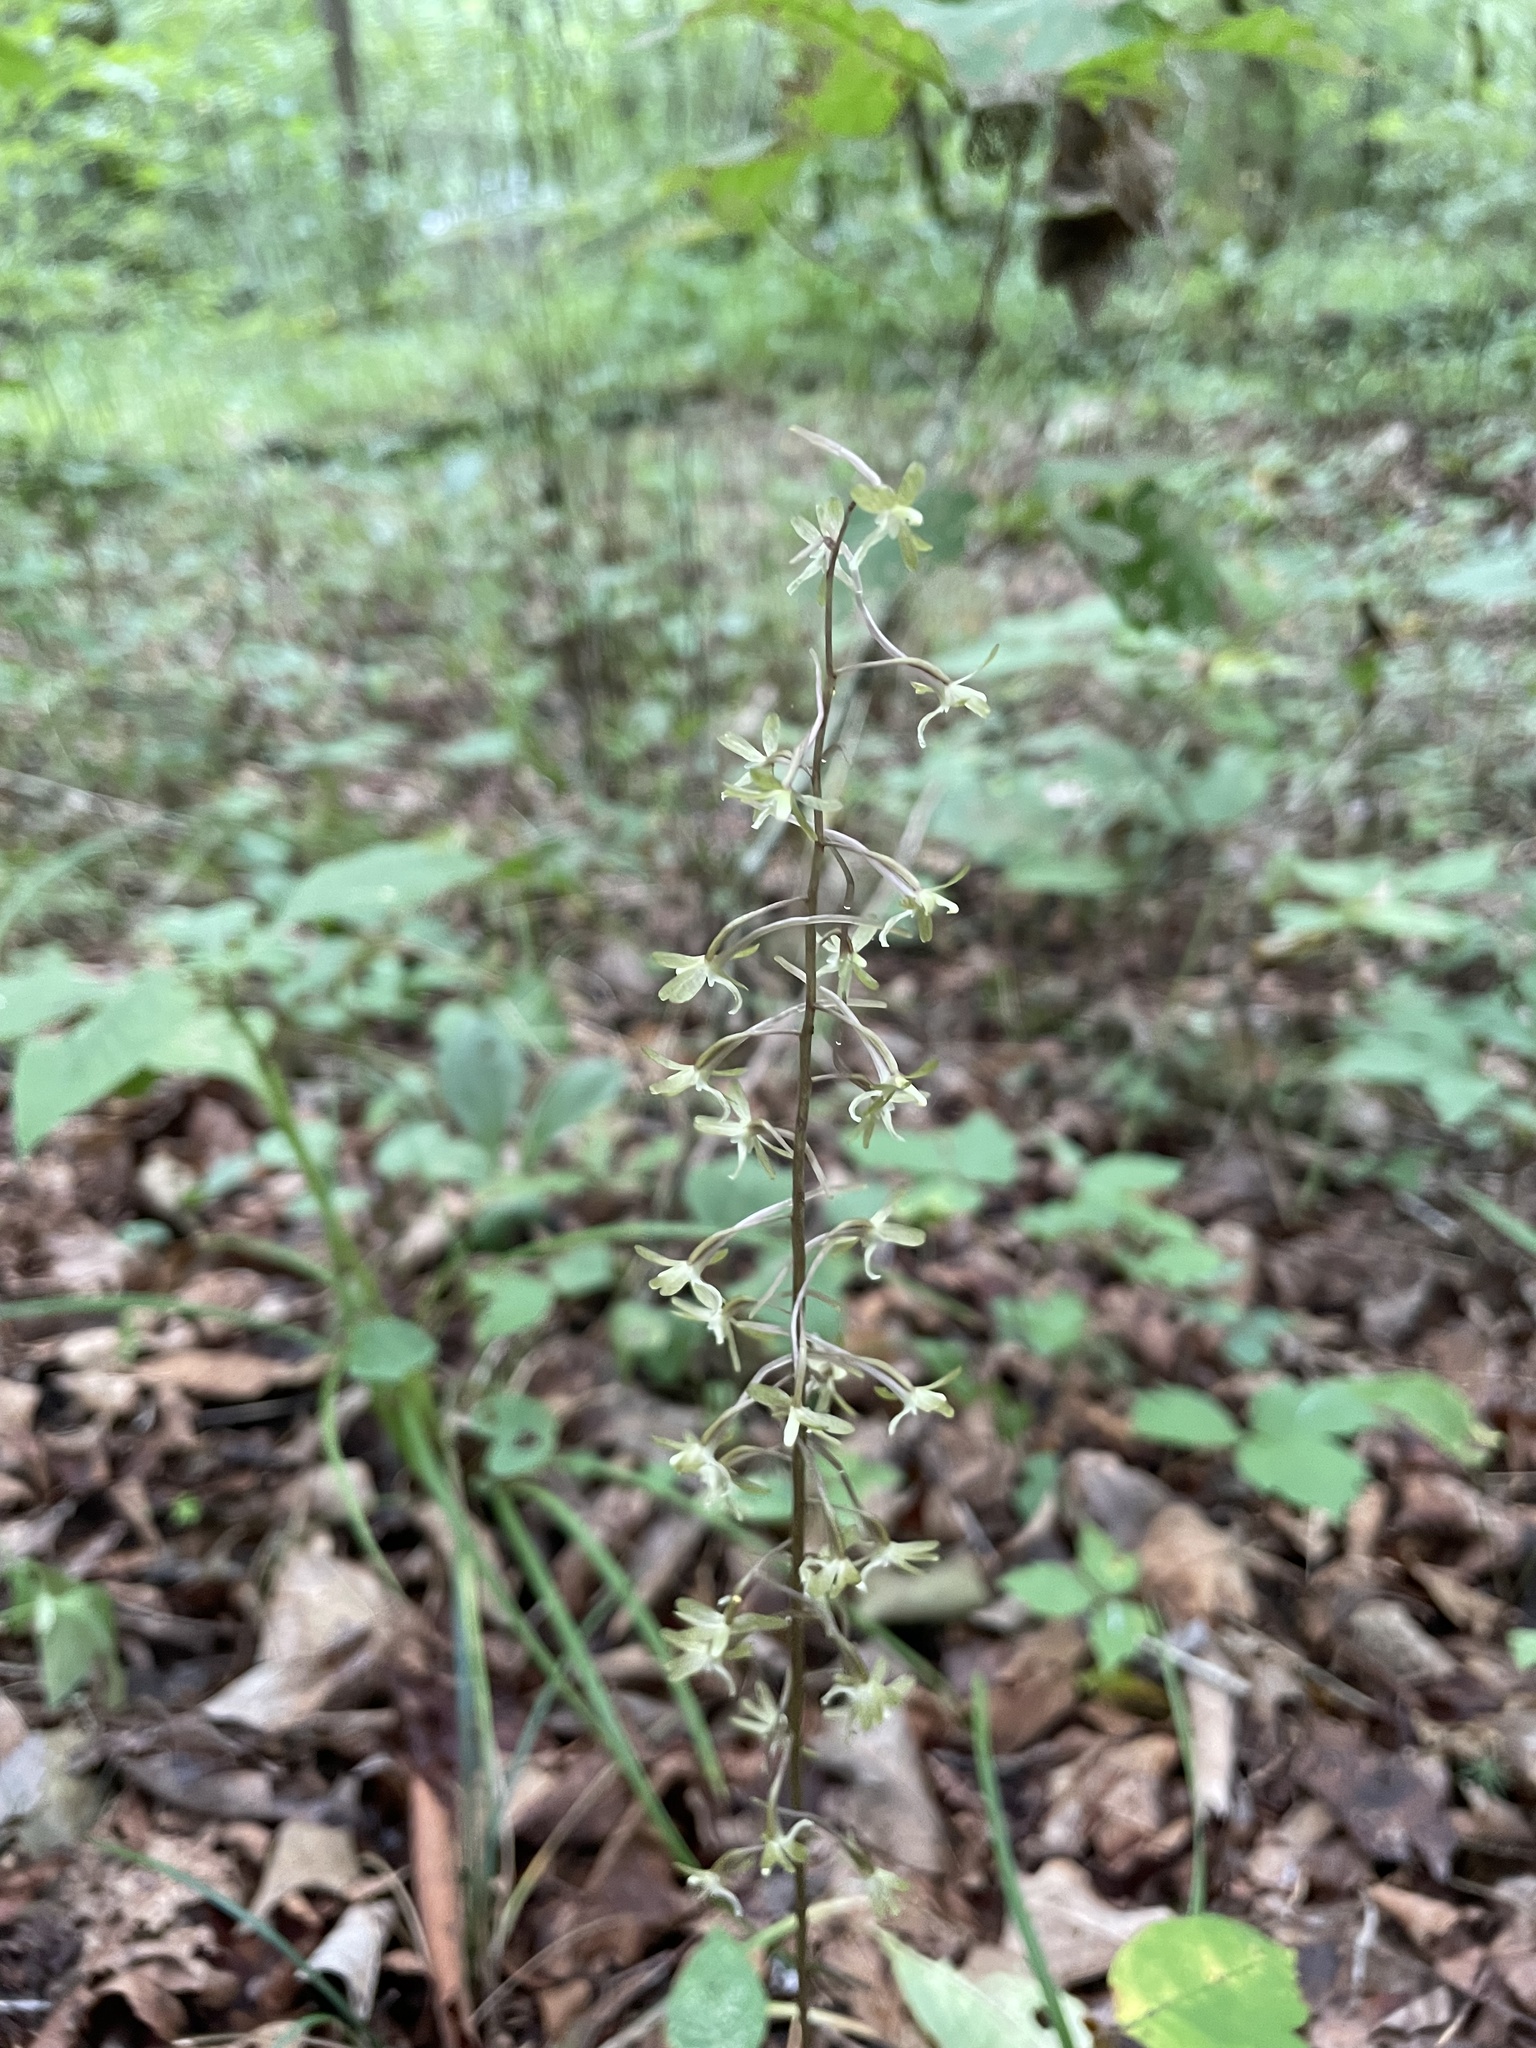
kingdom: Plantae
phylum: Tracheophyta
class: Liliopsida
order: Asparagales
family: Orchidaceae
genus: Tipularia
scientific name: Tipularia discolor
